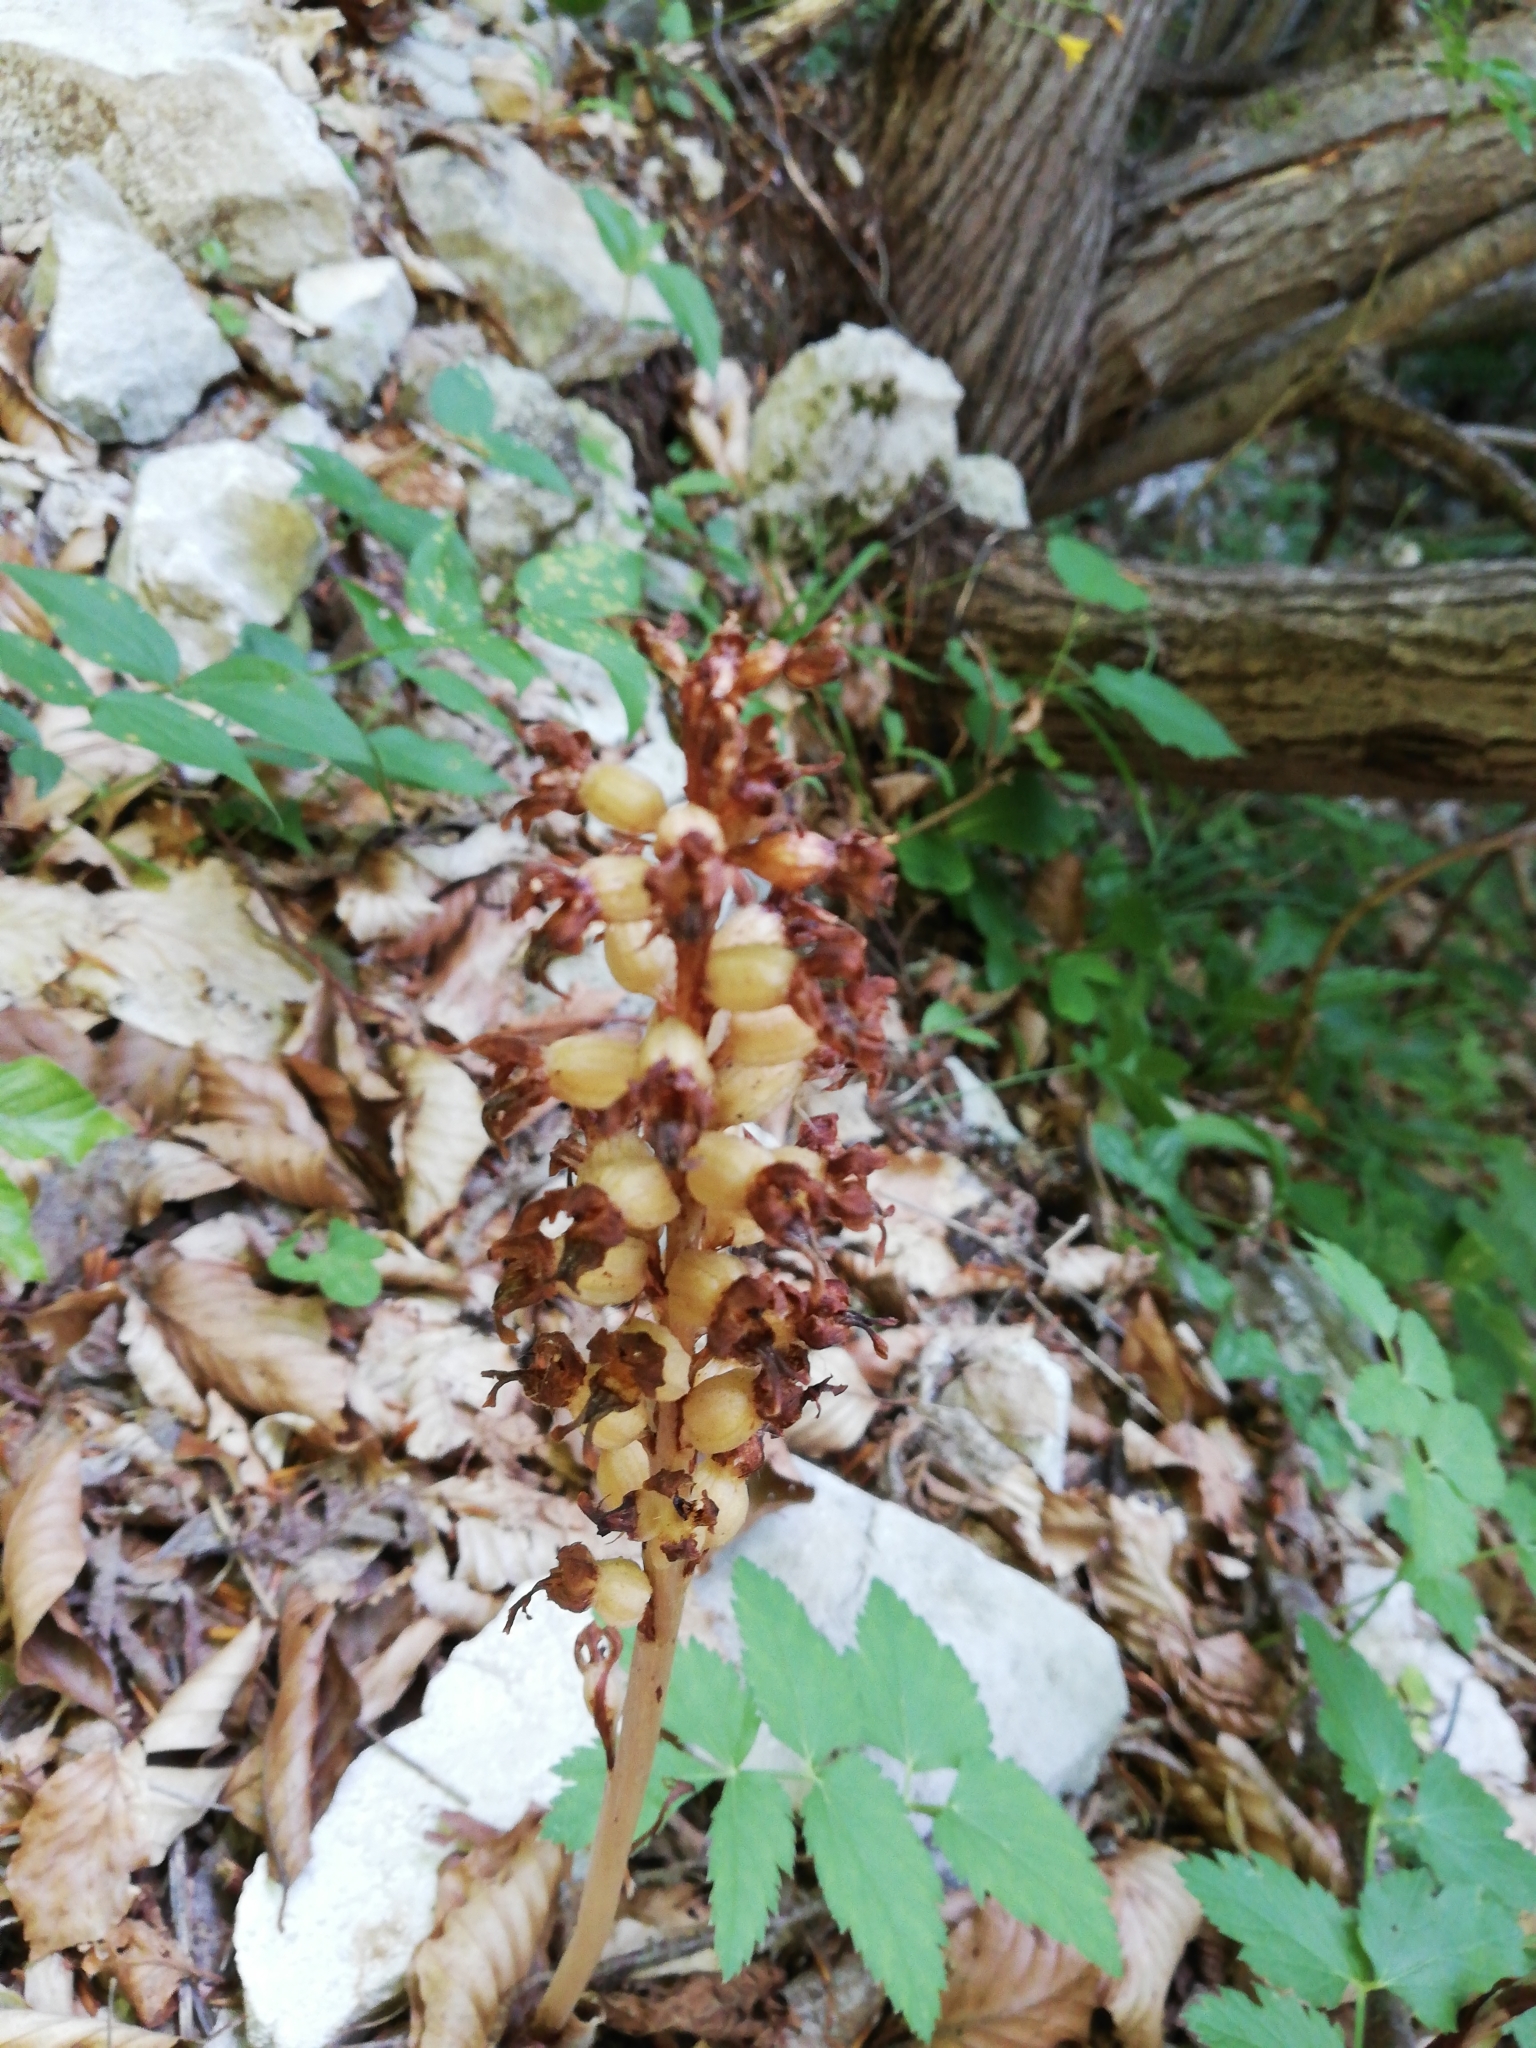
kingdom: Plantae
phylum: Tracheophyta
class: Liliopsida
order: Asparagales
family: Orchidaceae
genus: Neottia
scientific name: Neottia nidus-avis
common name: Bird's-nest orchid
